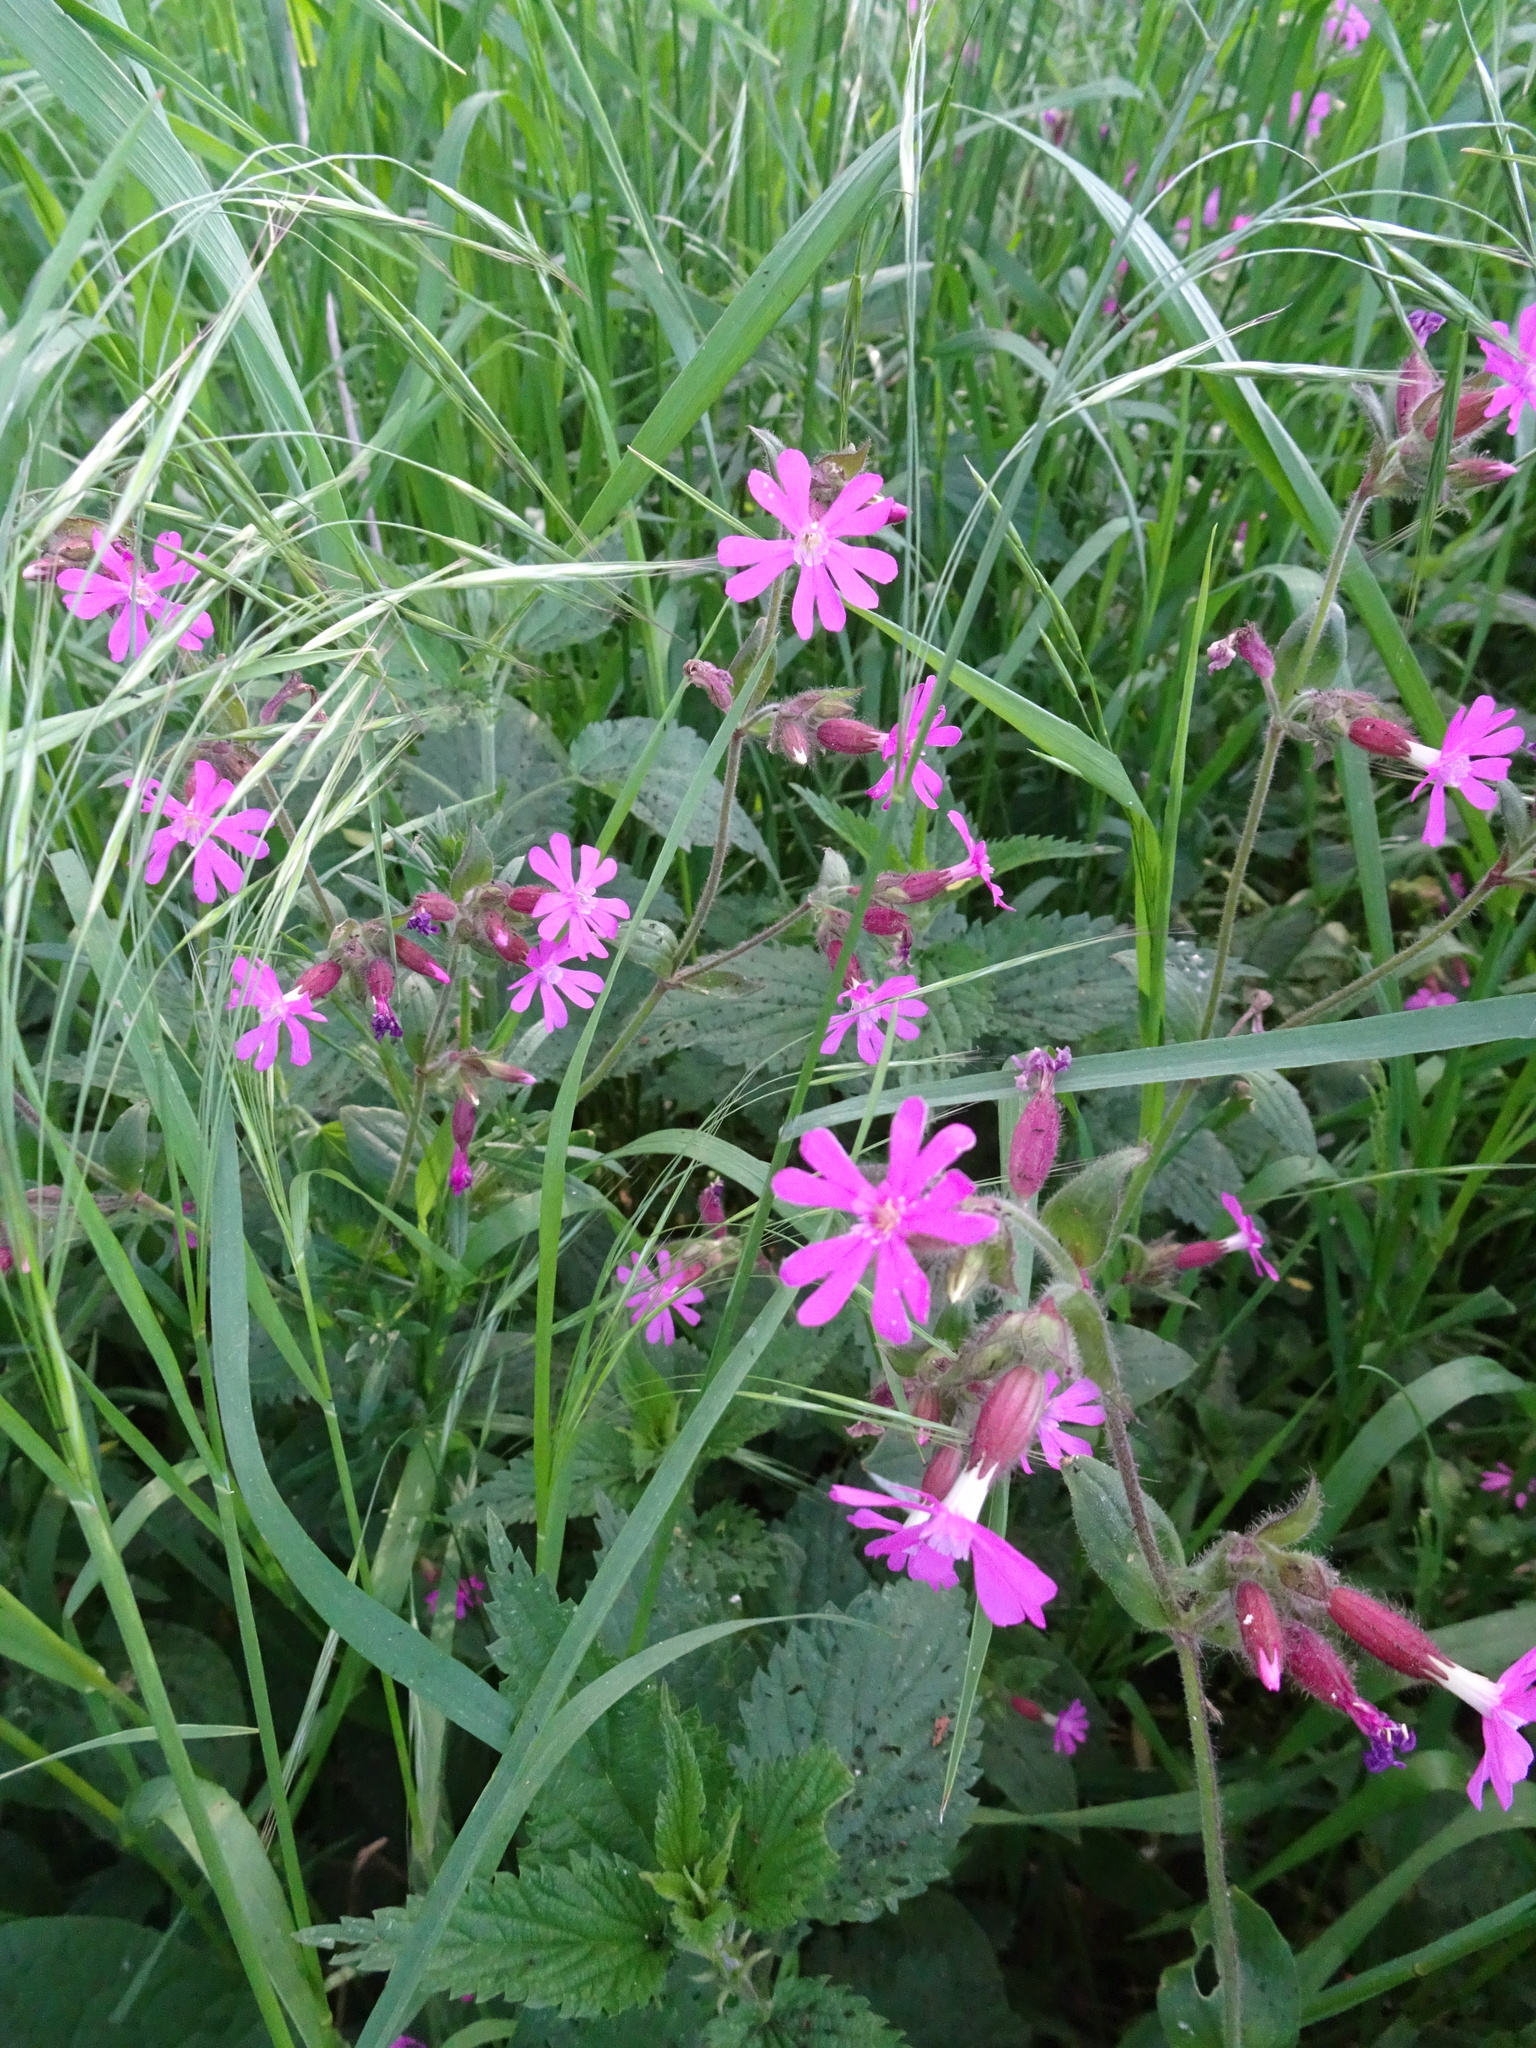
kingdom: Plantae
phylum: Tracheophyta
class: Magnoliopsida
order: Caryophyllales
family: Caryophyllaceae
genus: Silene
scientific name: Silene dioica
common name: Red campion
